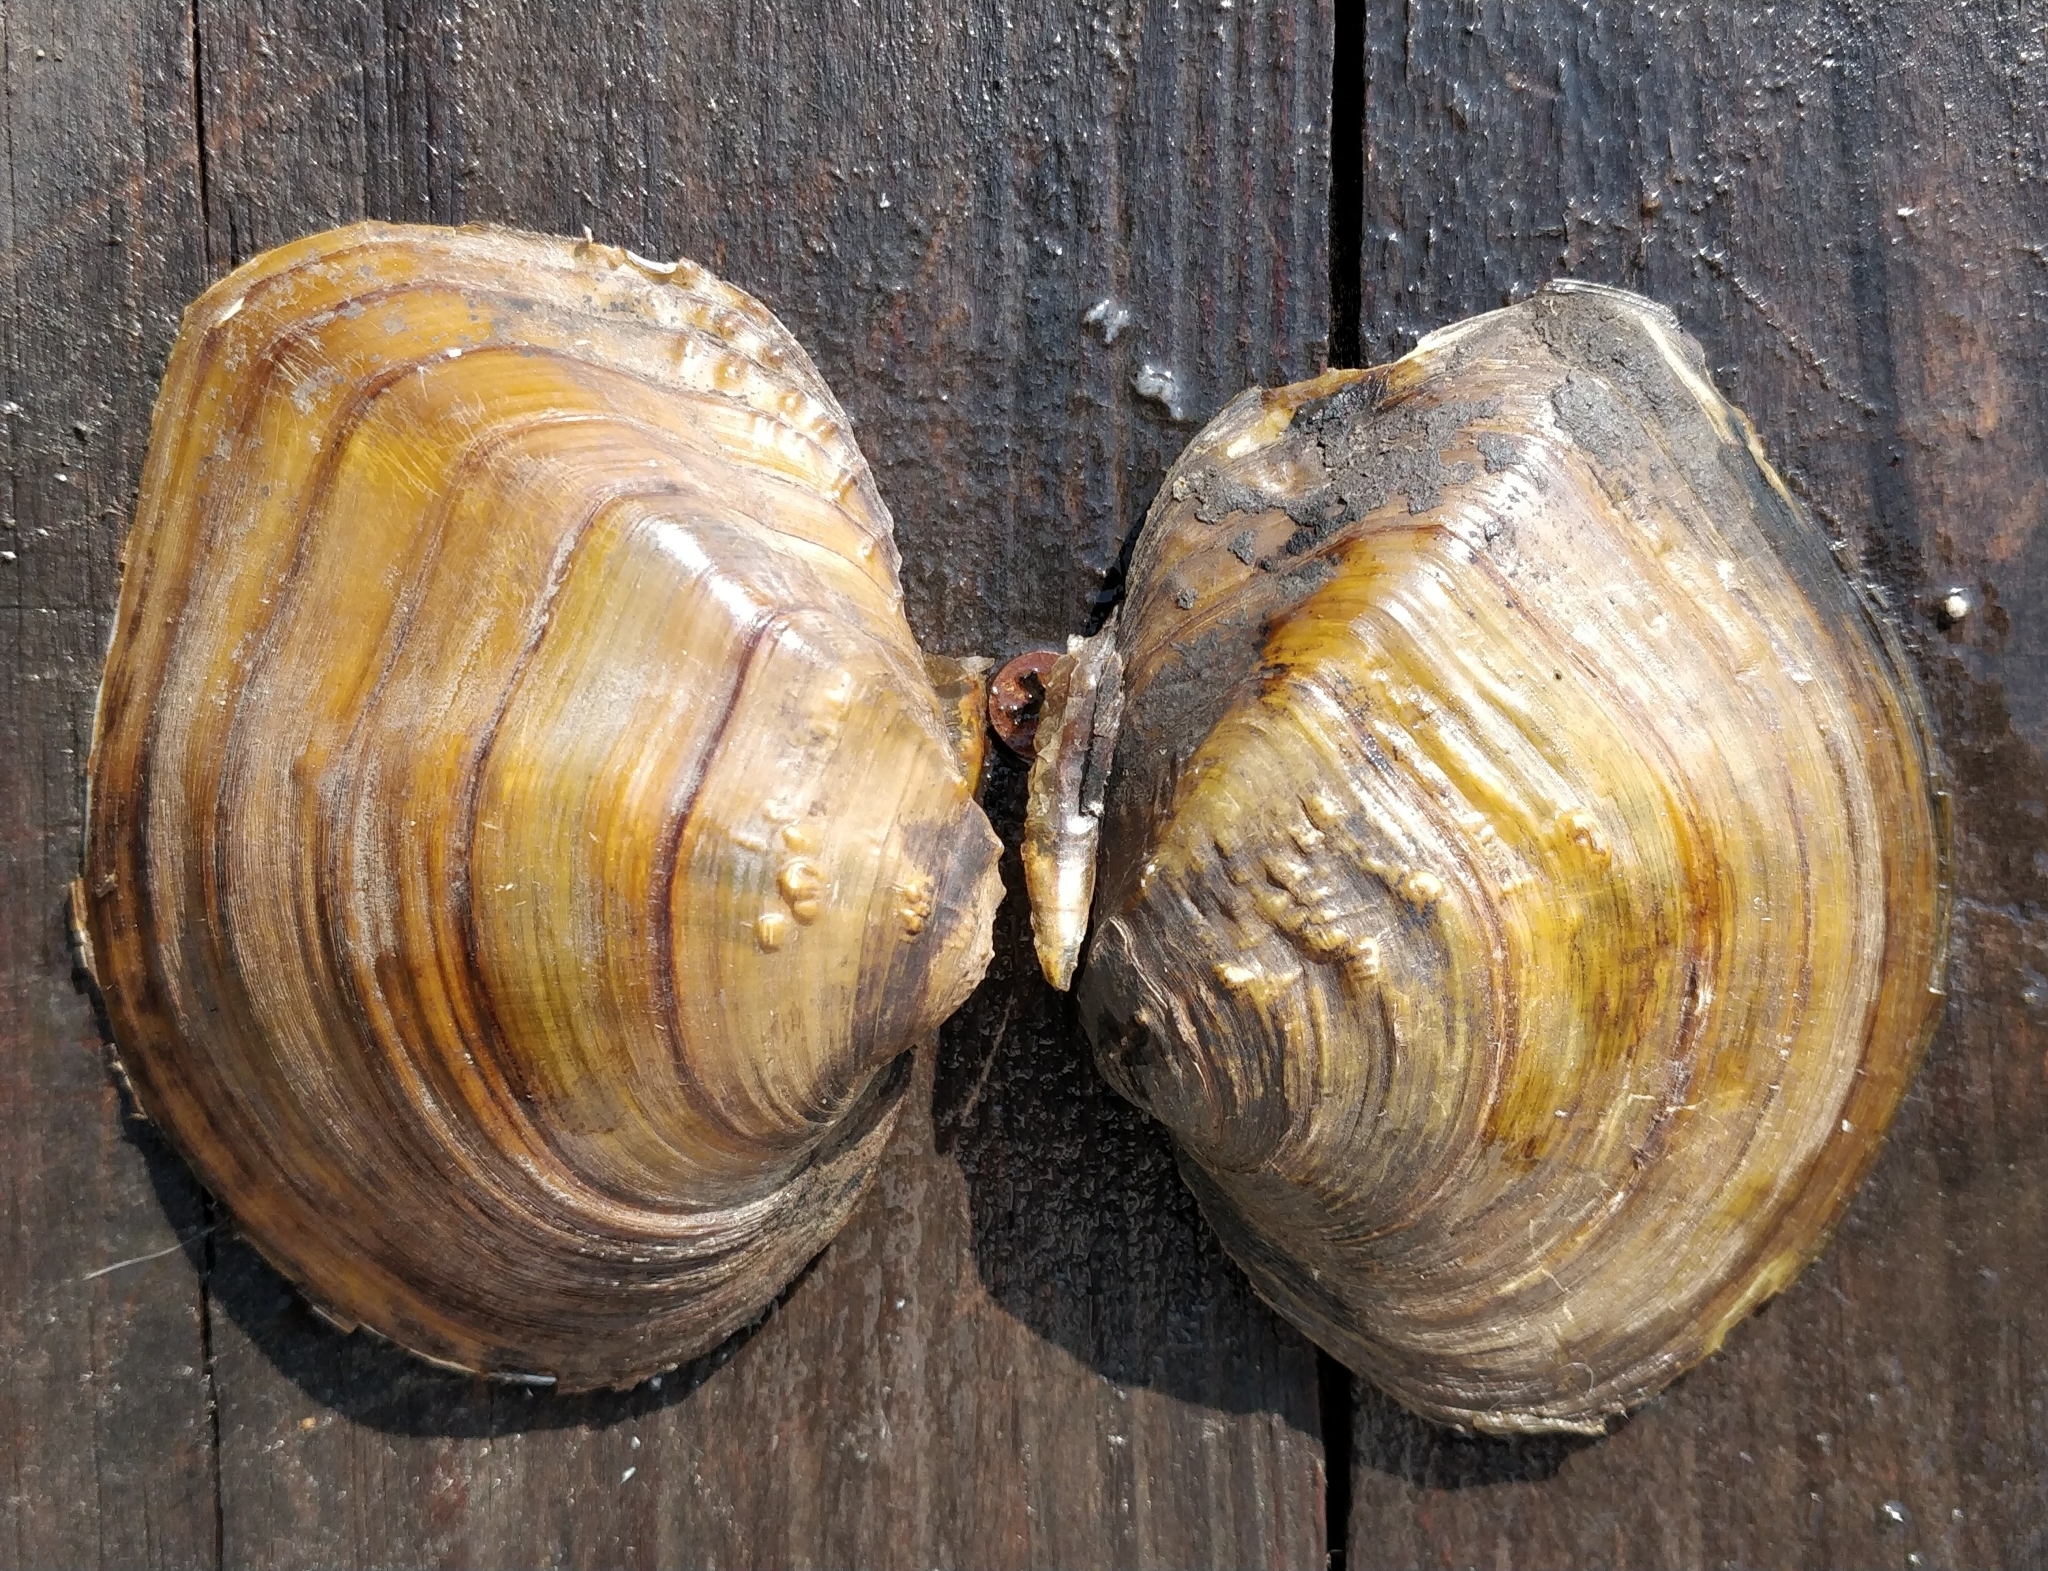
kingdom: Animalia
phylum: Mollusca
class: Bivalvia
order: Unionida
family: Unionidae
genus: Quadrula
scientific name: Quadrula quadrula
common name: Mapleleaf
